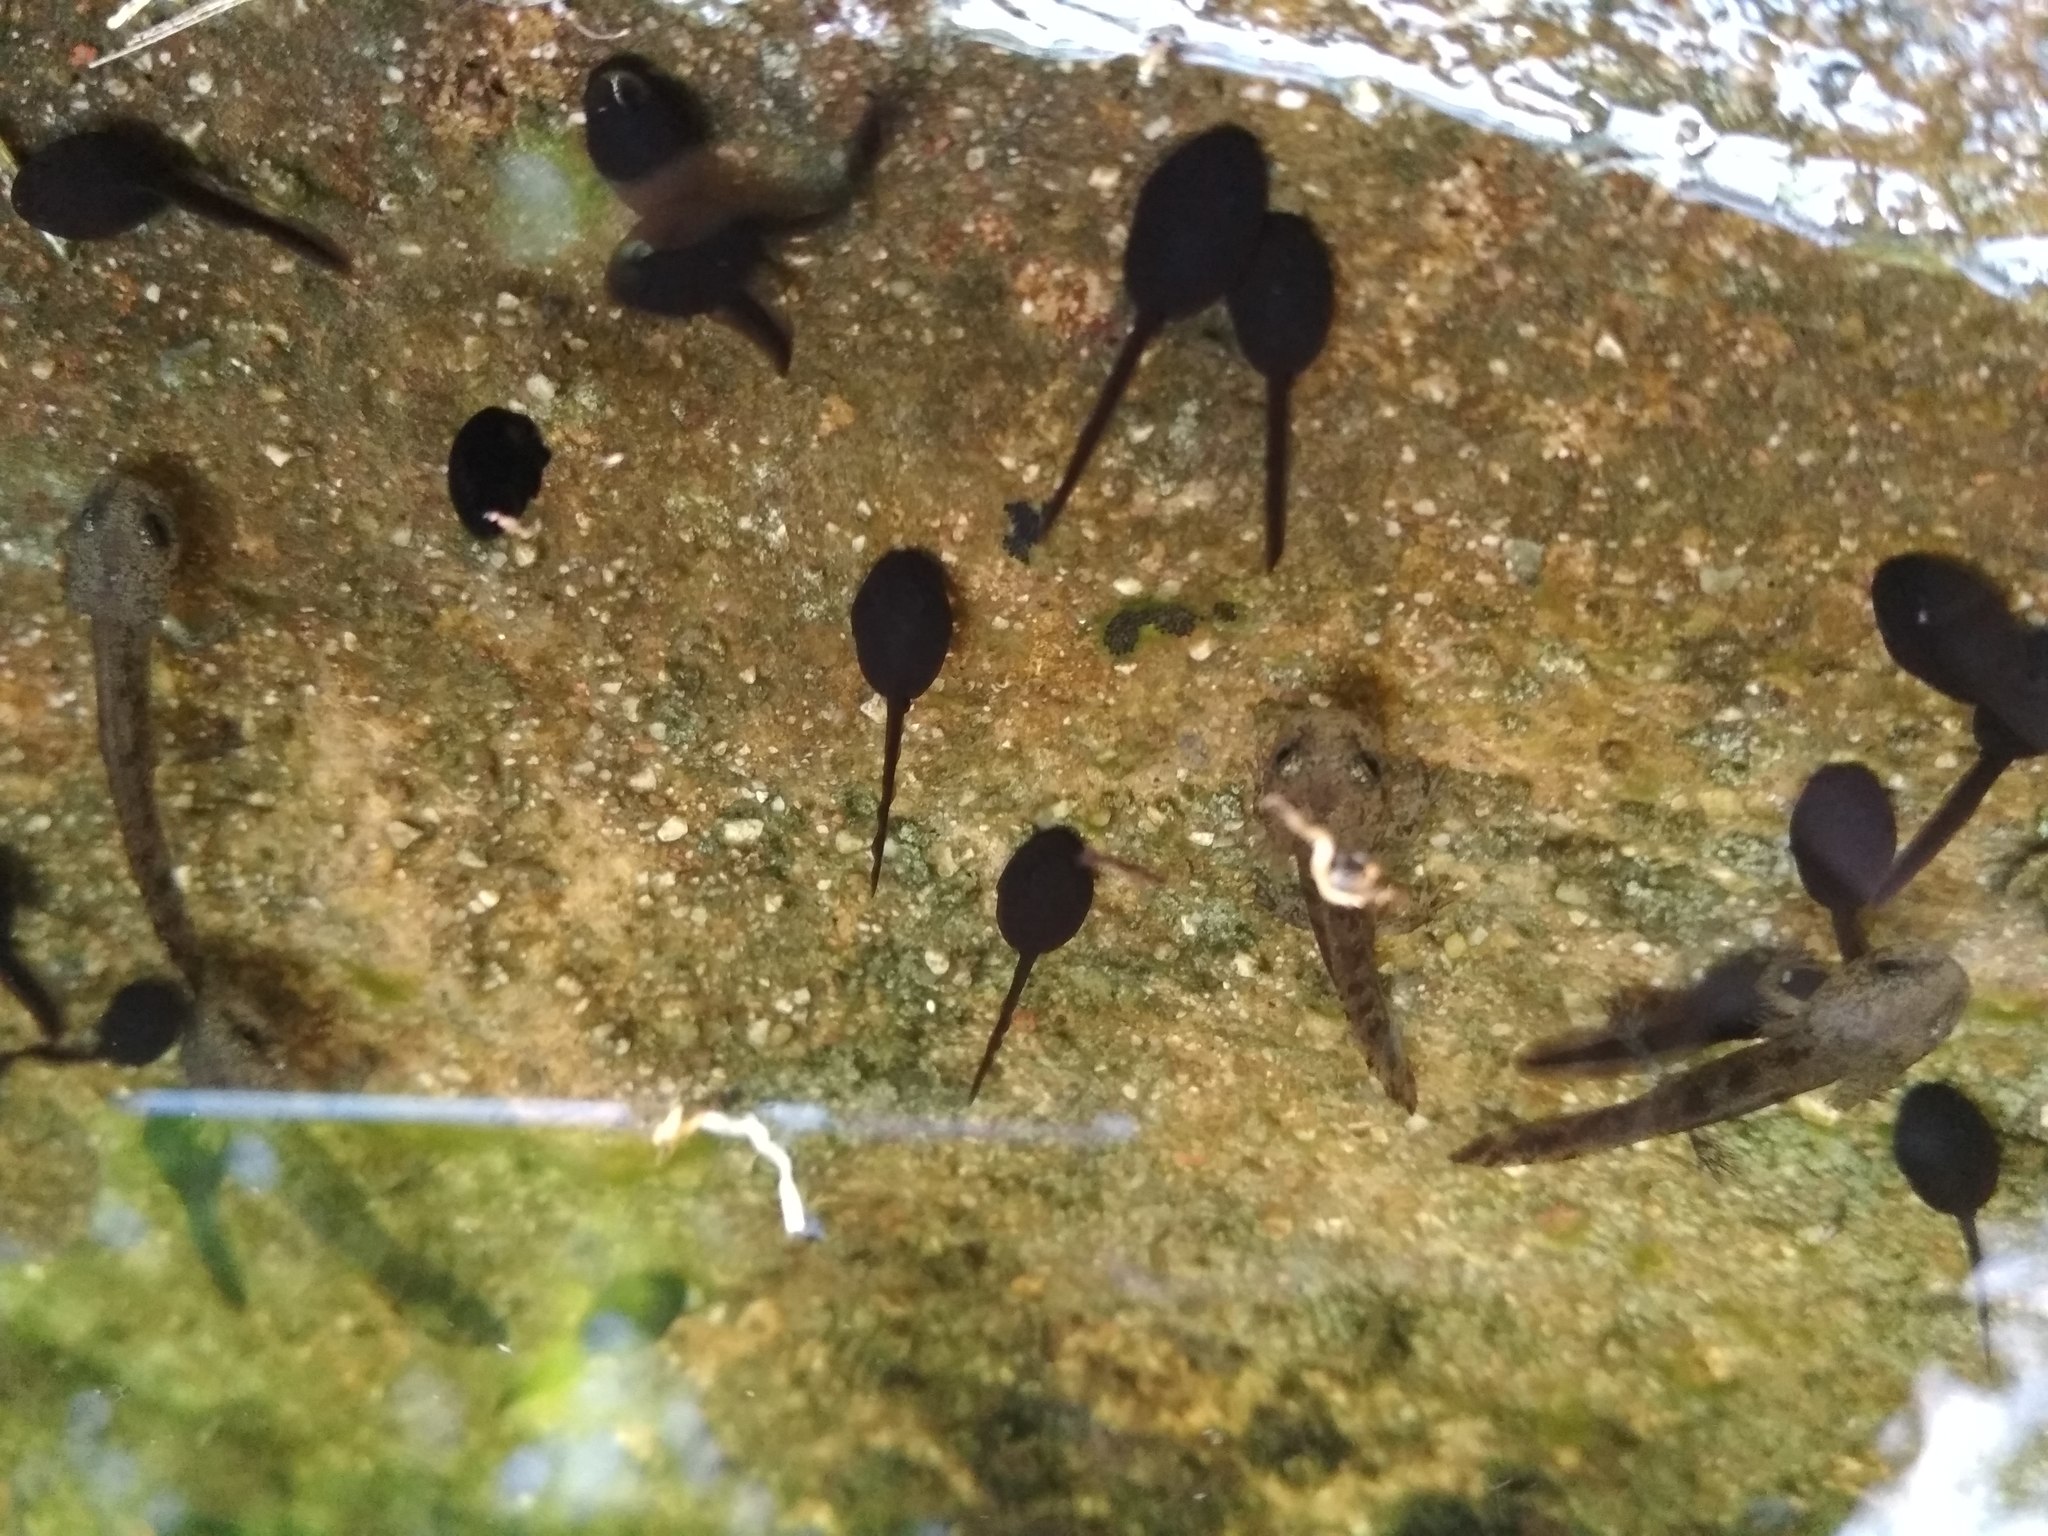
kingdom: Animalia
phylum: Chordata
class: Amphibia
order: Anura
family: Bufonidae
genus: Bufo
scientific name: Bufo bufo
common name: Common toad
